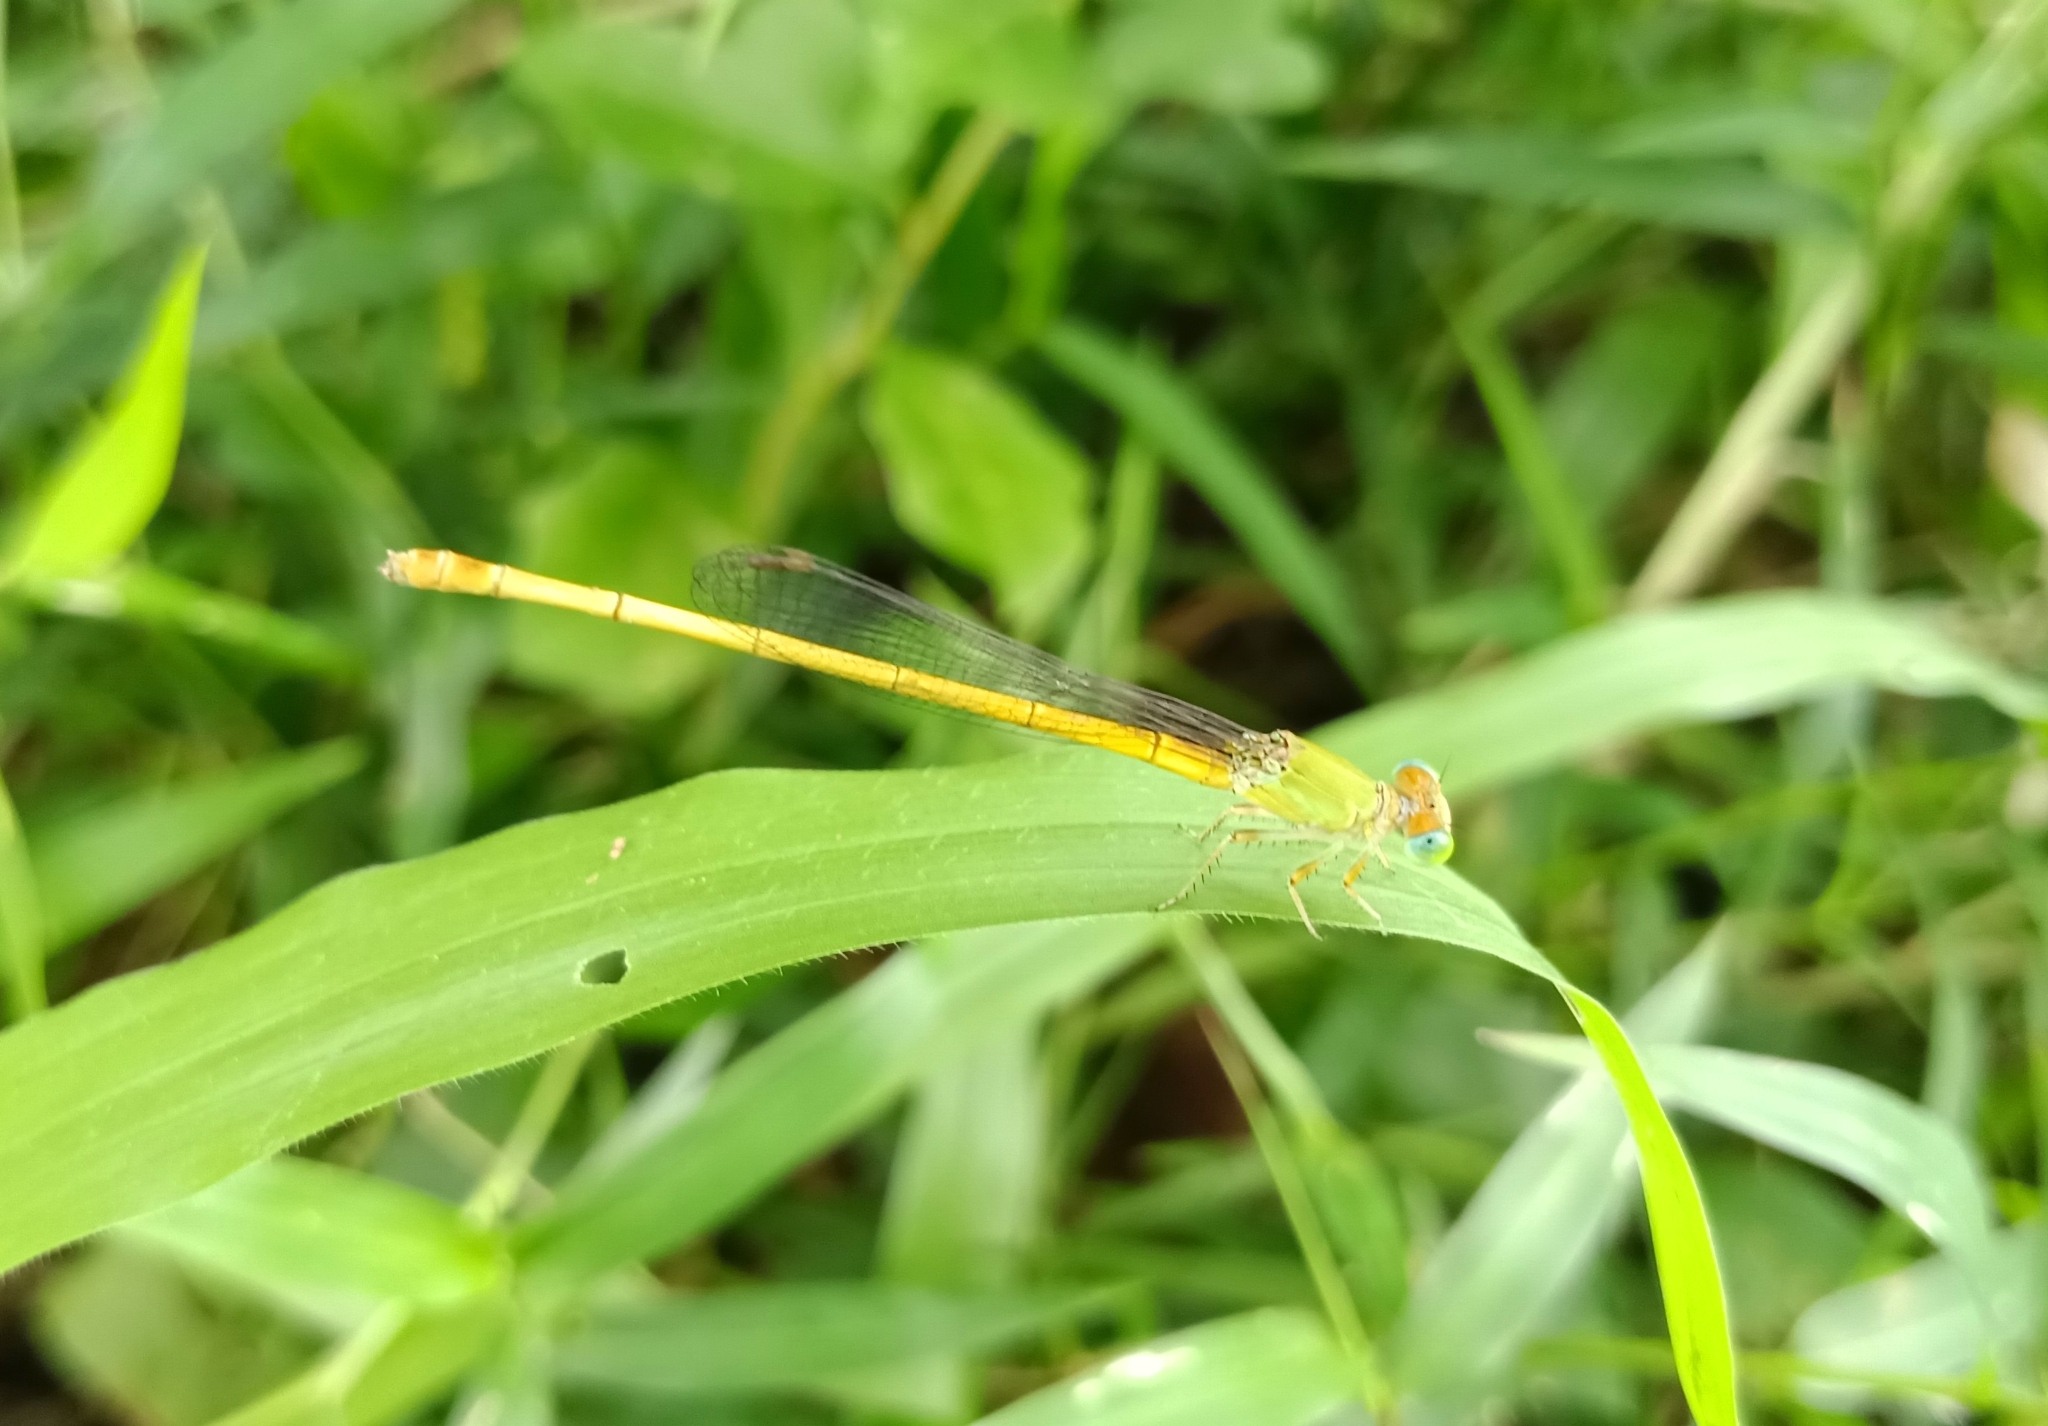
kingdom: Animalia
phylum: Arthropoda
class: Insecta
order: Odonata
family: Coenagrionidae
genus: Ceriagrion
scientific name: Ceriagrion coromandelianum
